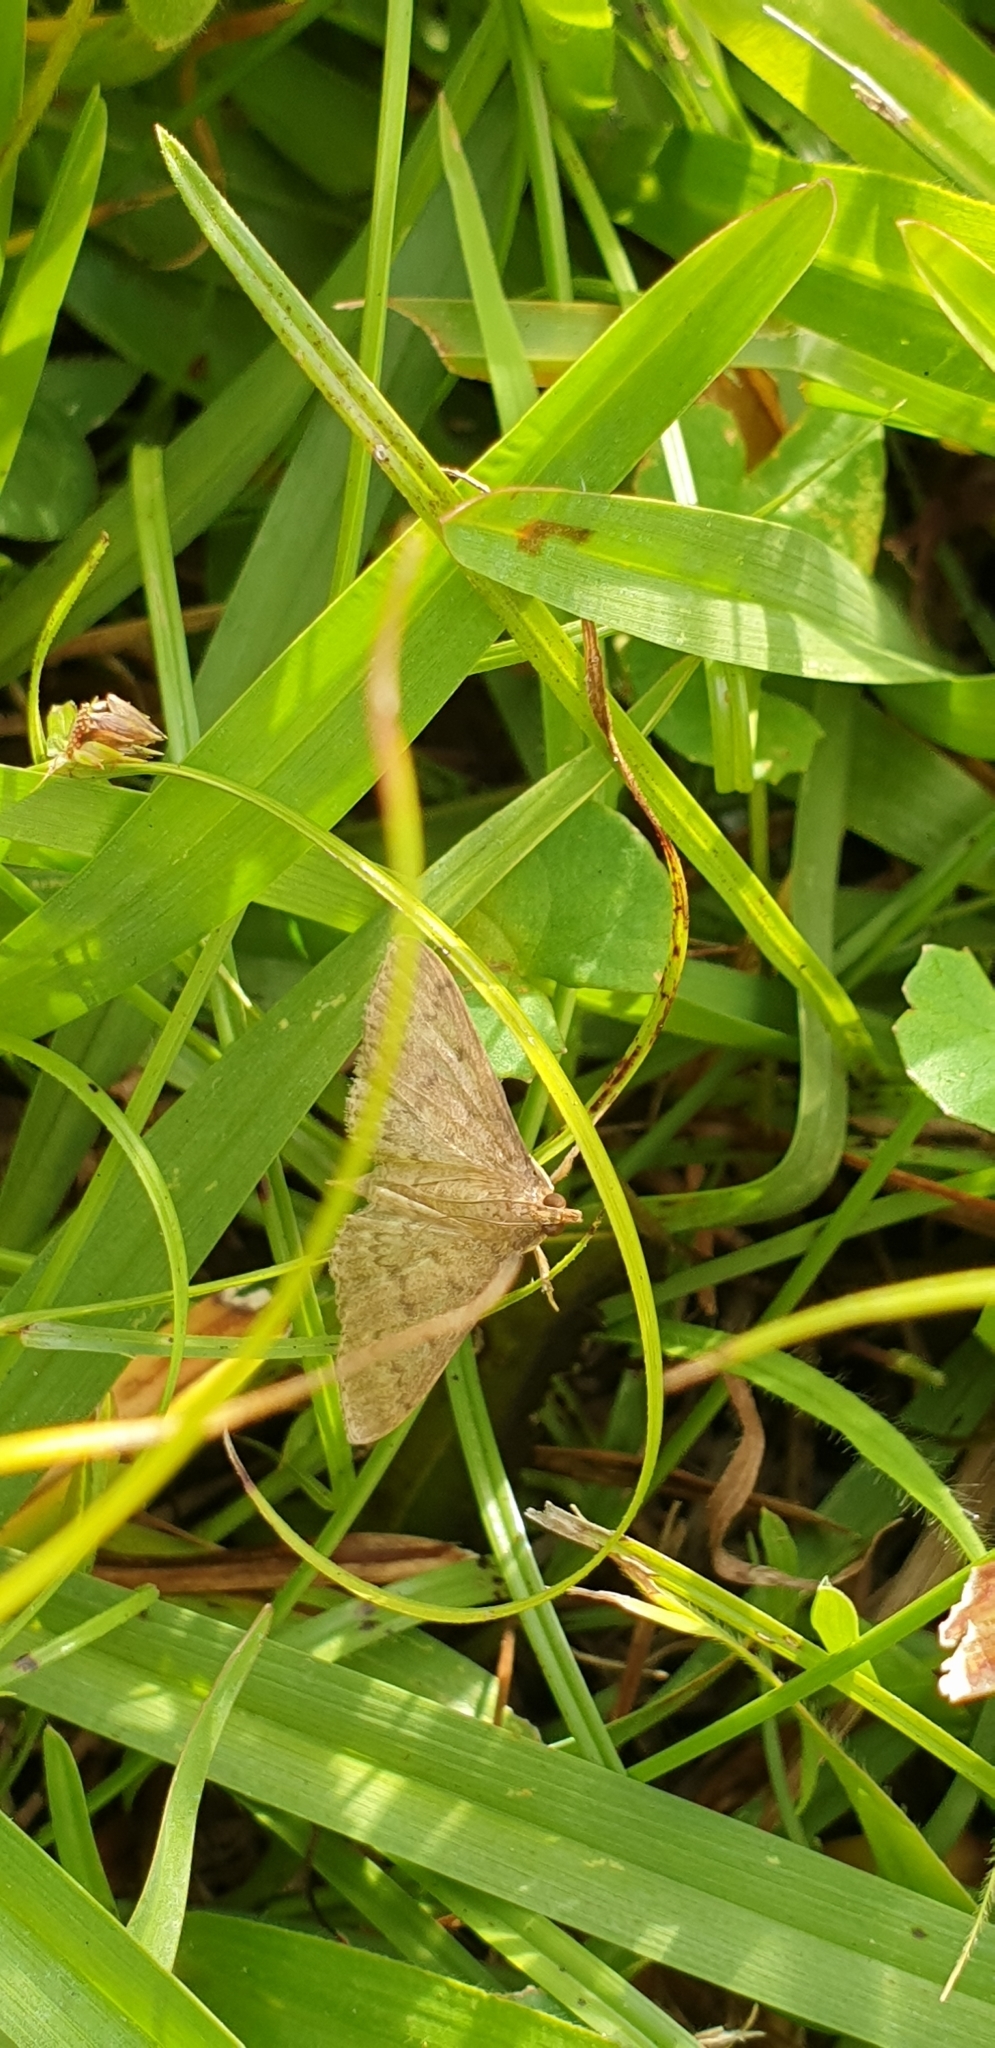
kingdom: Animalia
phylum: Arthropoda
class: Insecta
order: Lepidoptera
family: Crambidae
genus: Herpetogramma
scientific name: Herpetogramma licarsisalis
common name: Grass webworm
